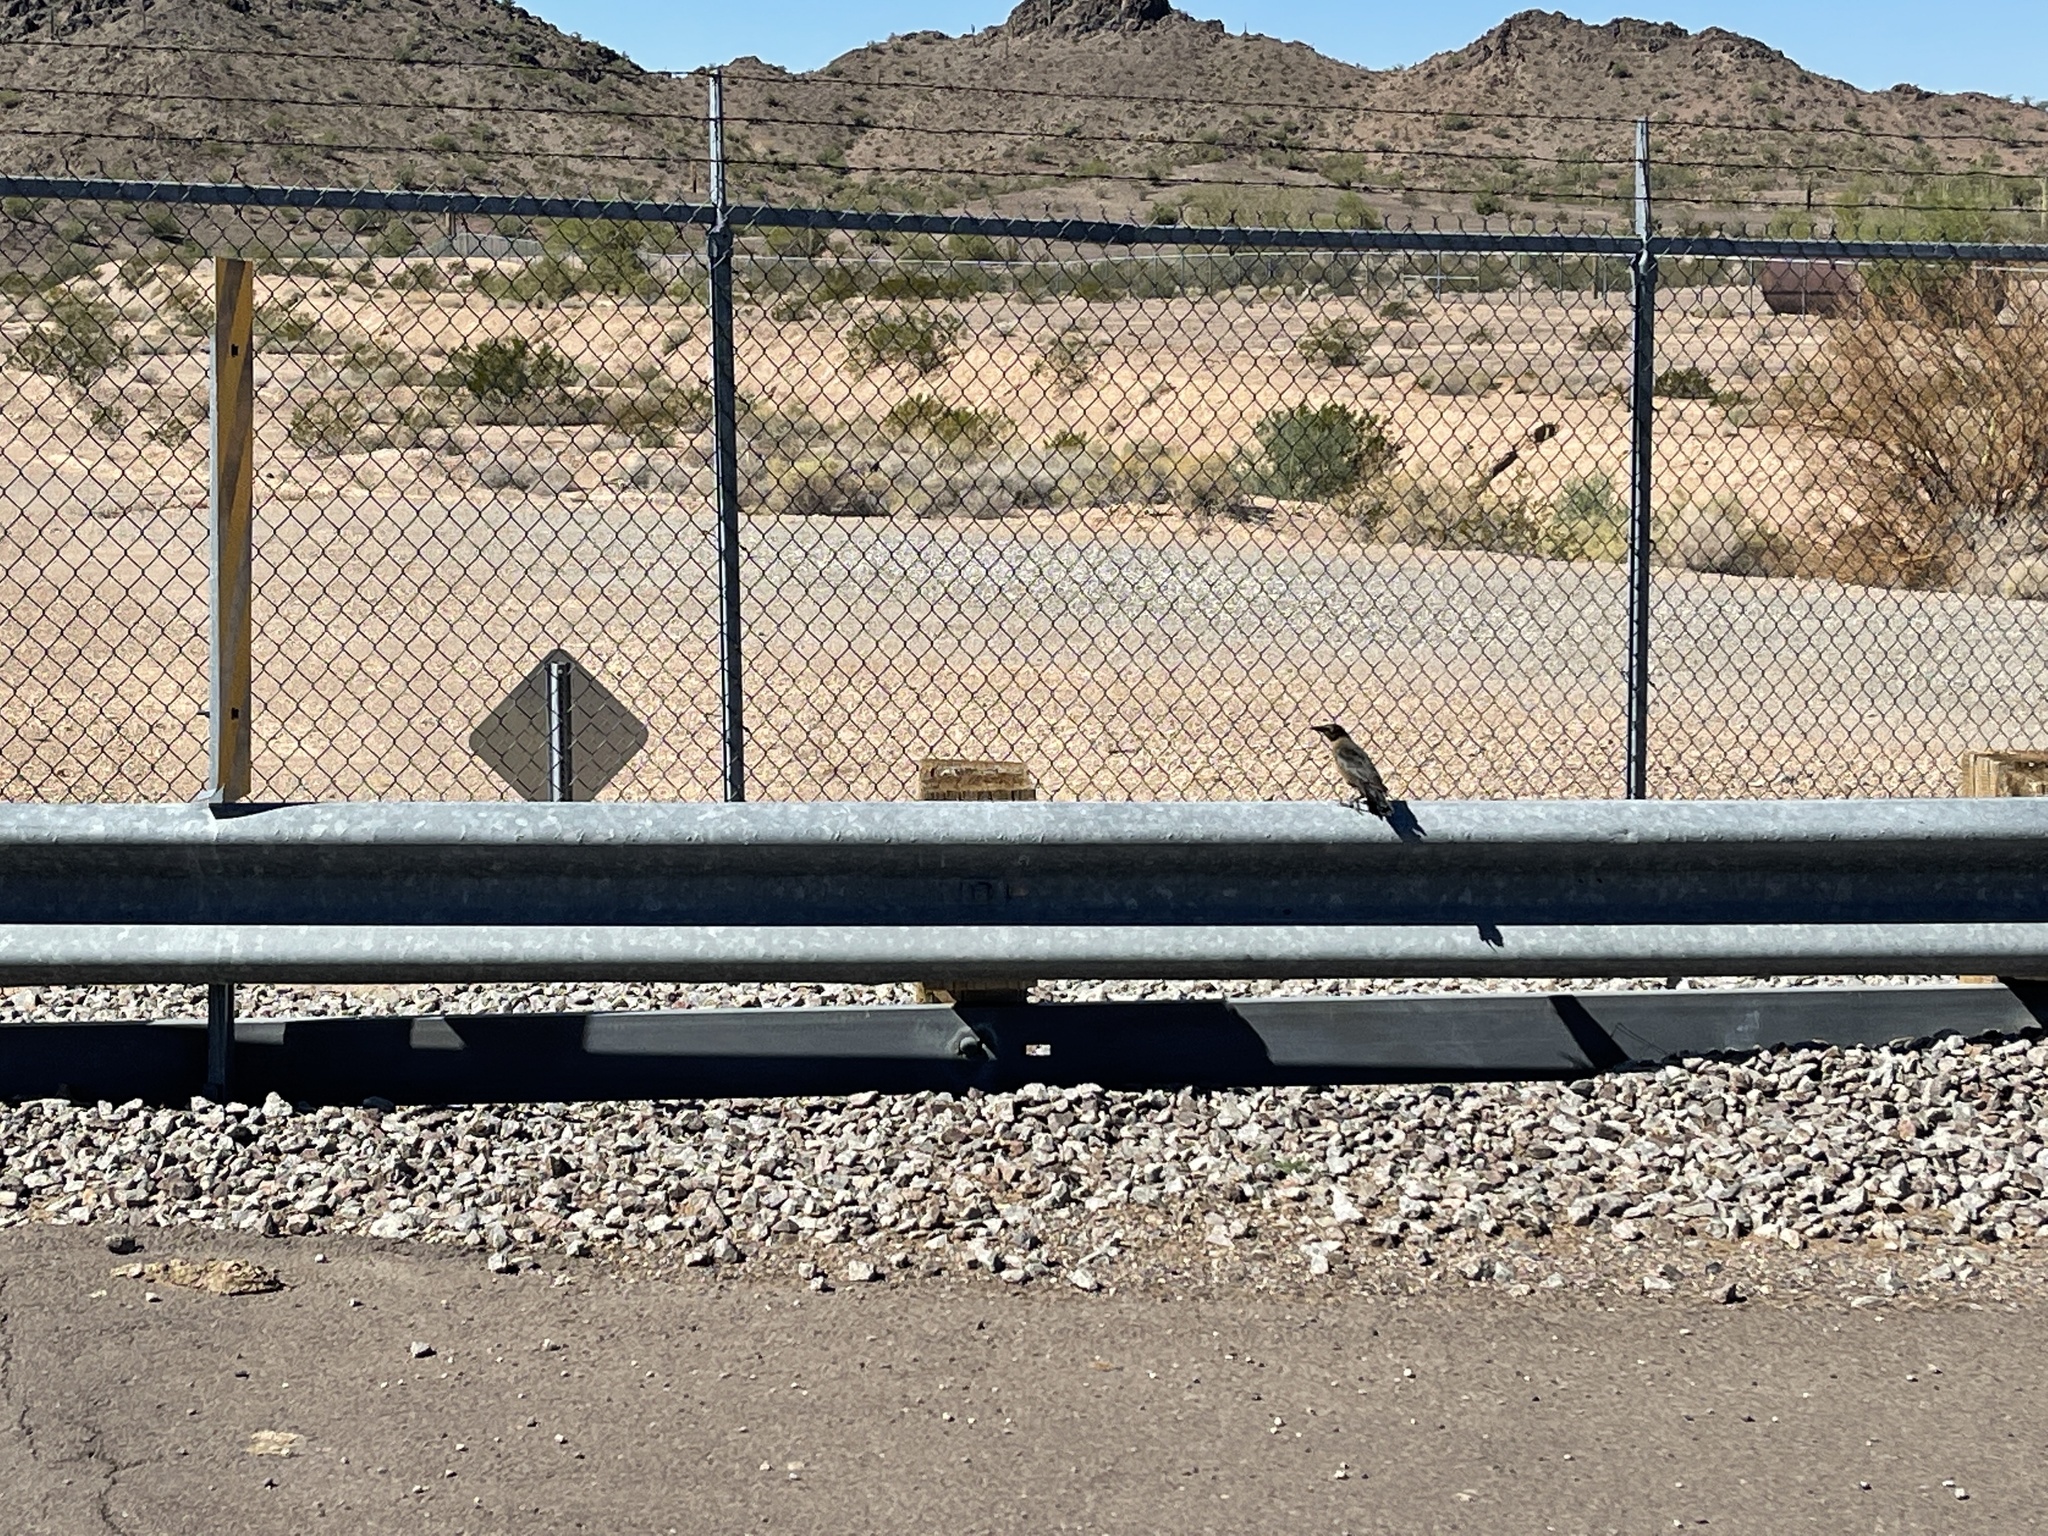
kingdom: Animalia
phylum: Chordata
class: Aves
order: Passeriformes
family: Icteridae
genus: Quiscalus
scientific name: Quiscalus mexicanus
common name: Great-tailed grackle
